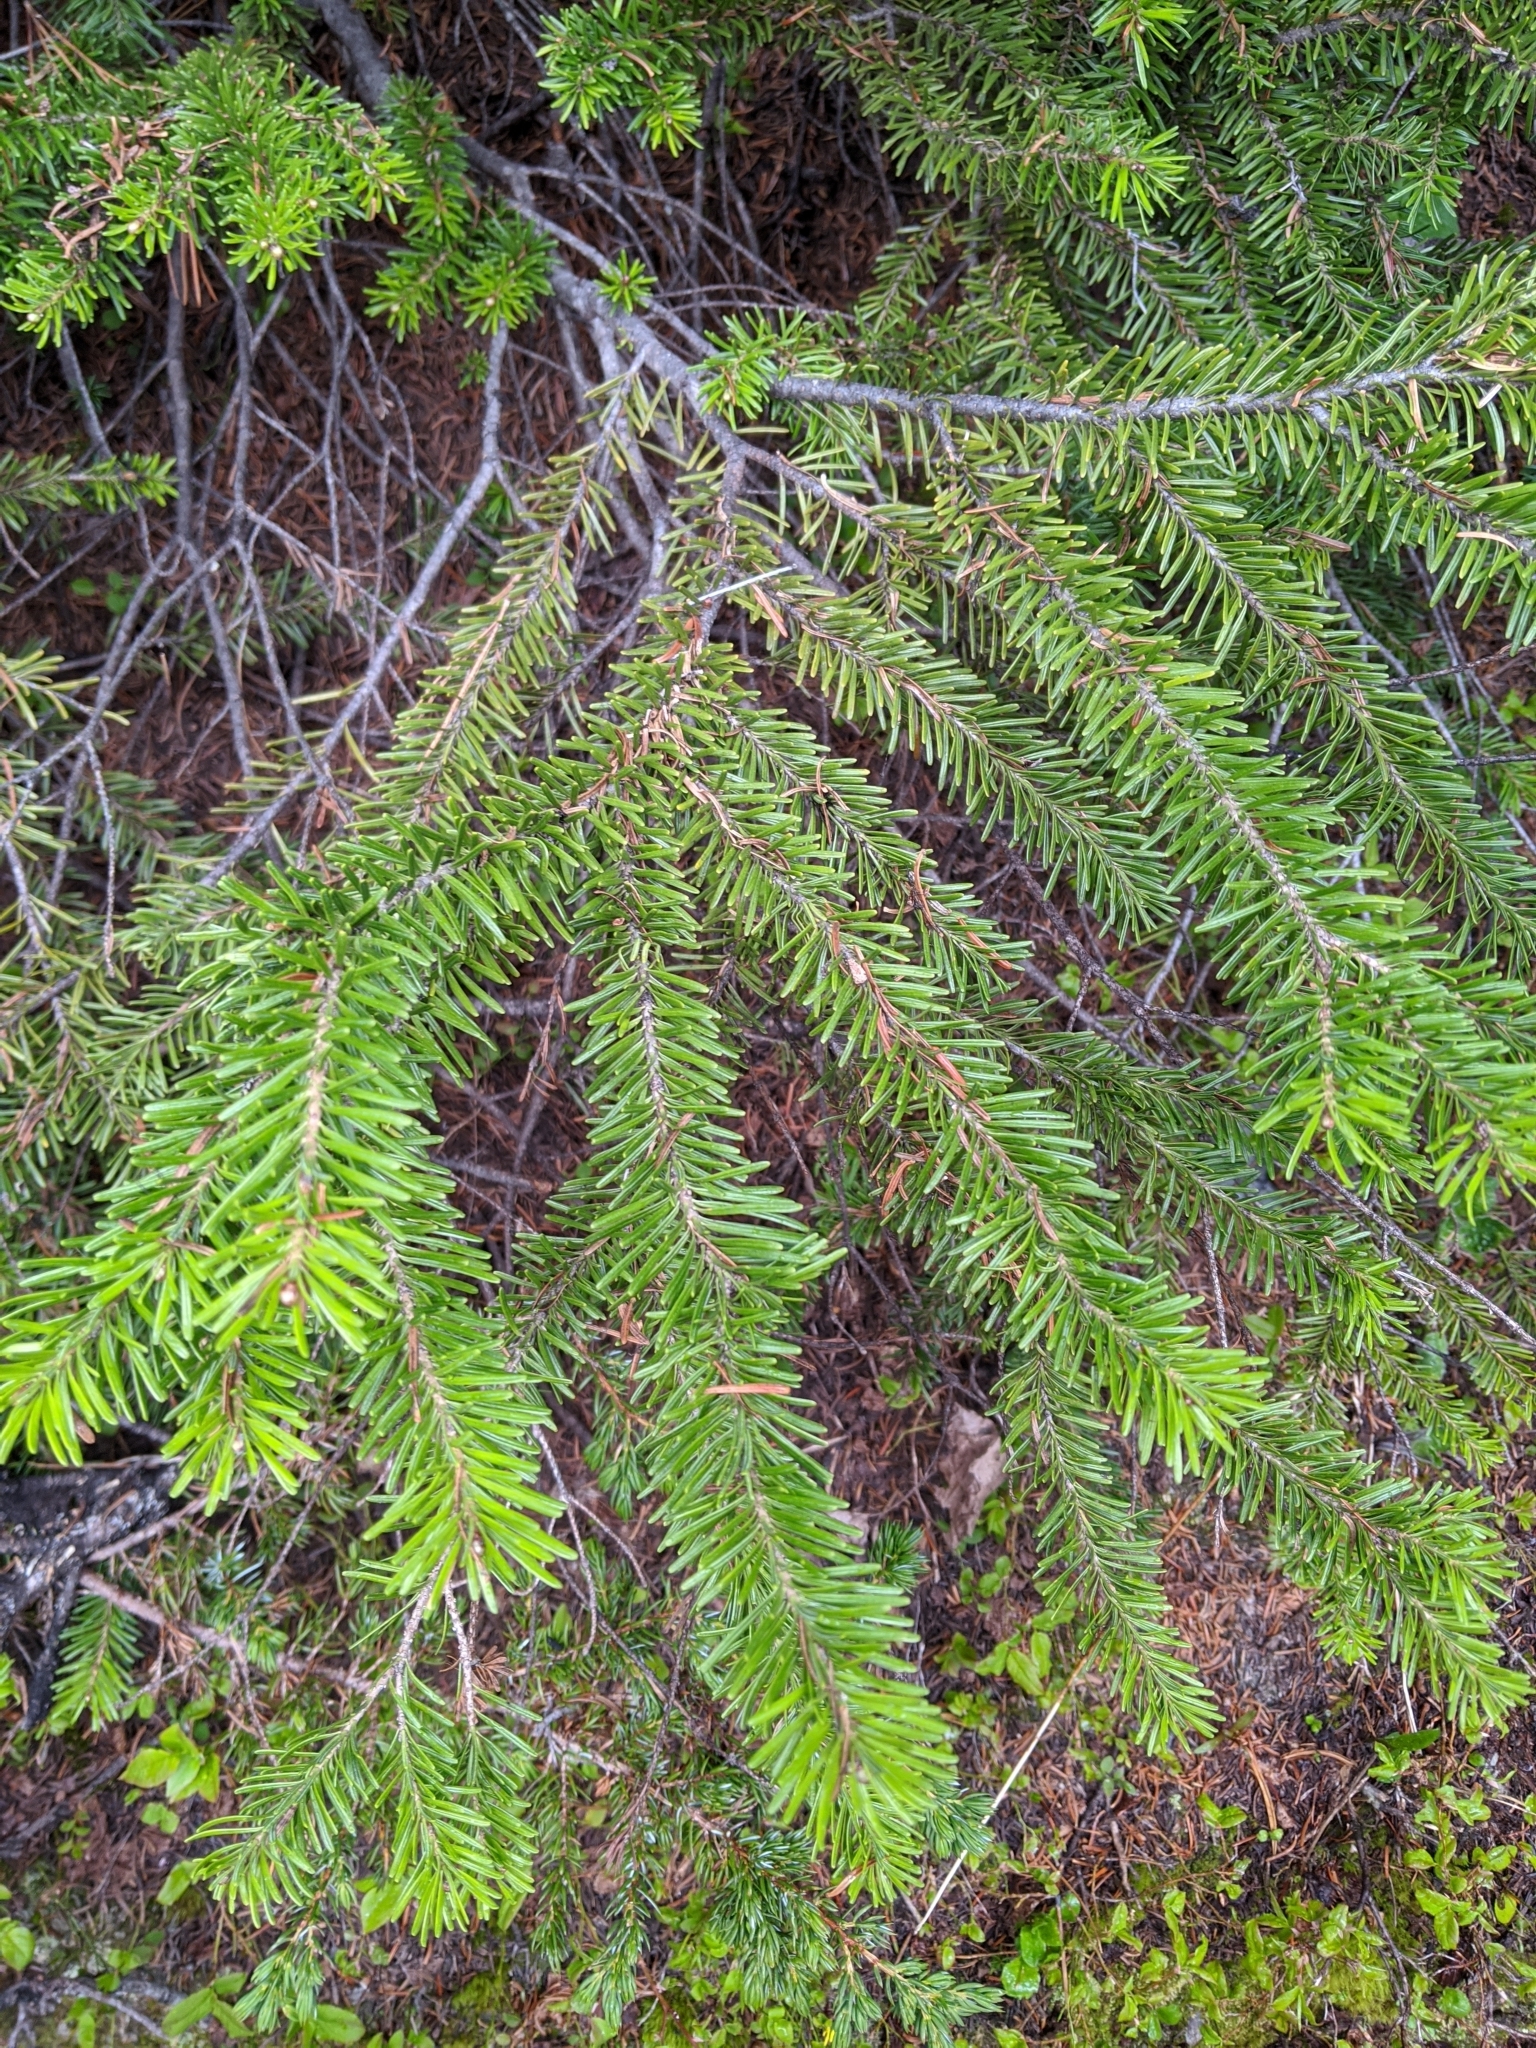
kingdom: Plantae
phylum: Tracheophyta
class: Pinopsida
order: Pinales
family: Pinaceae
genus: Abies
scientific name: Abies lasiocarpa
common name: Subalpine fir
